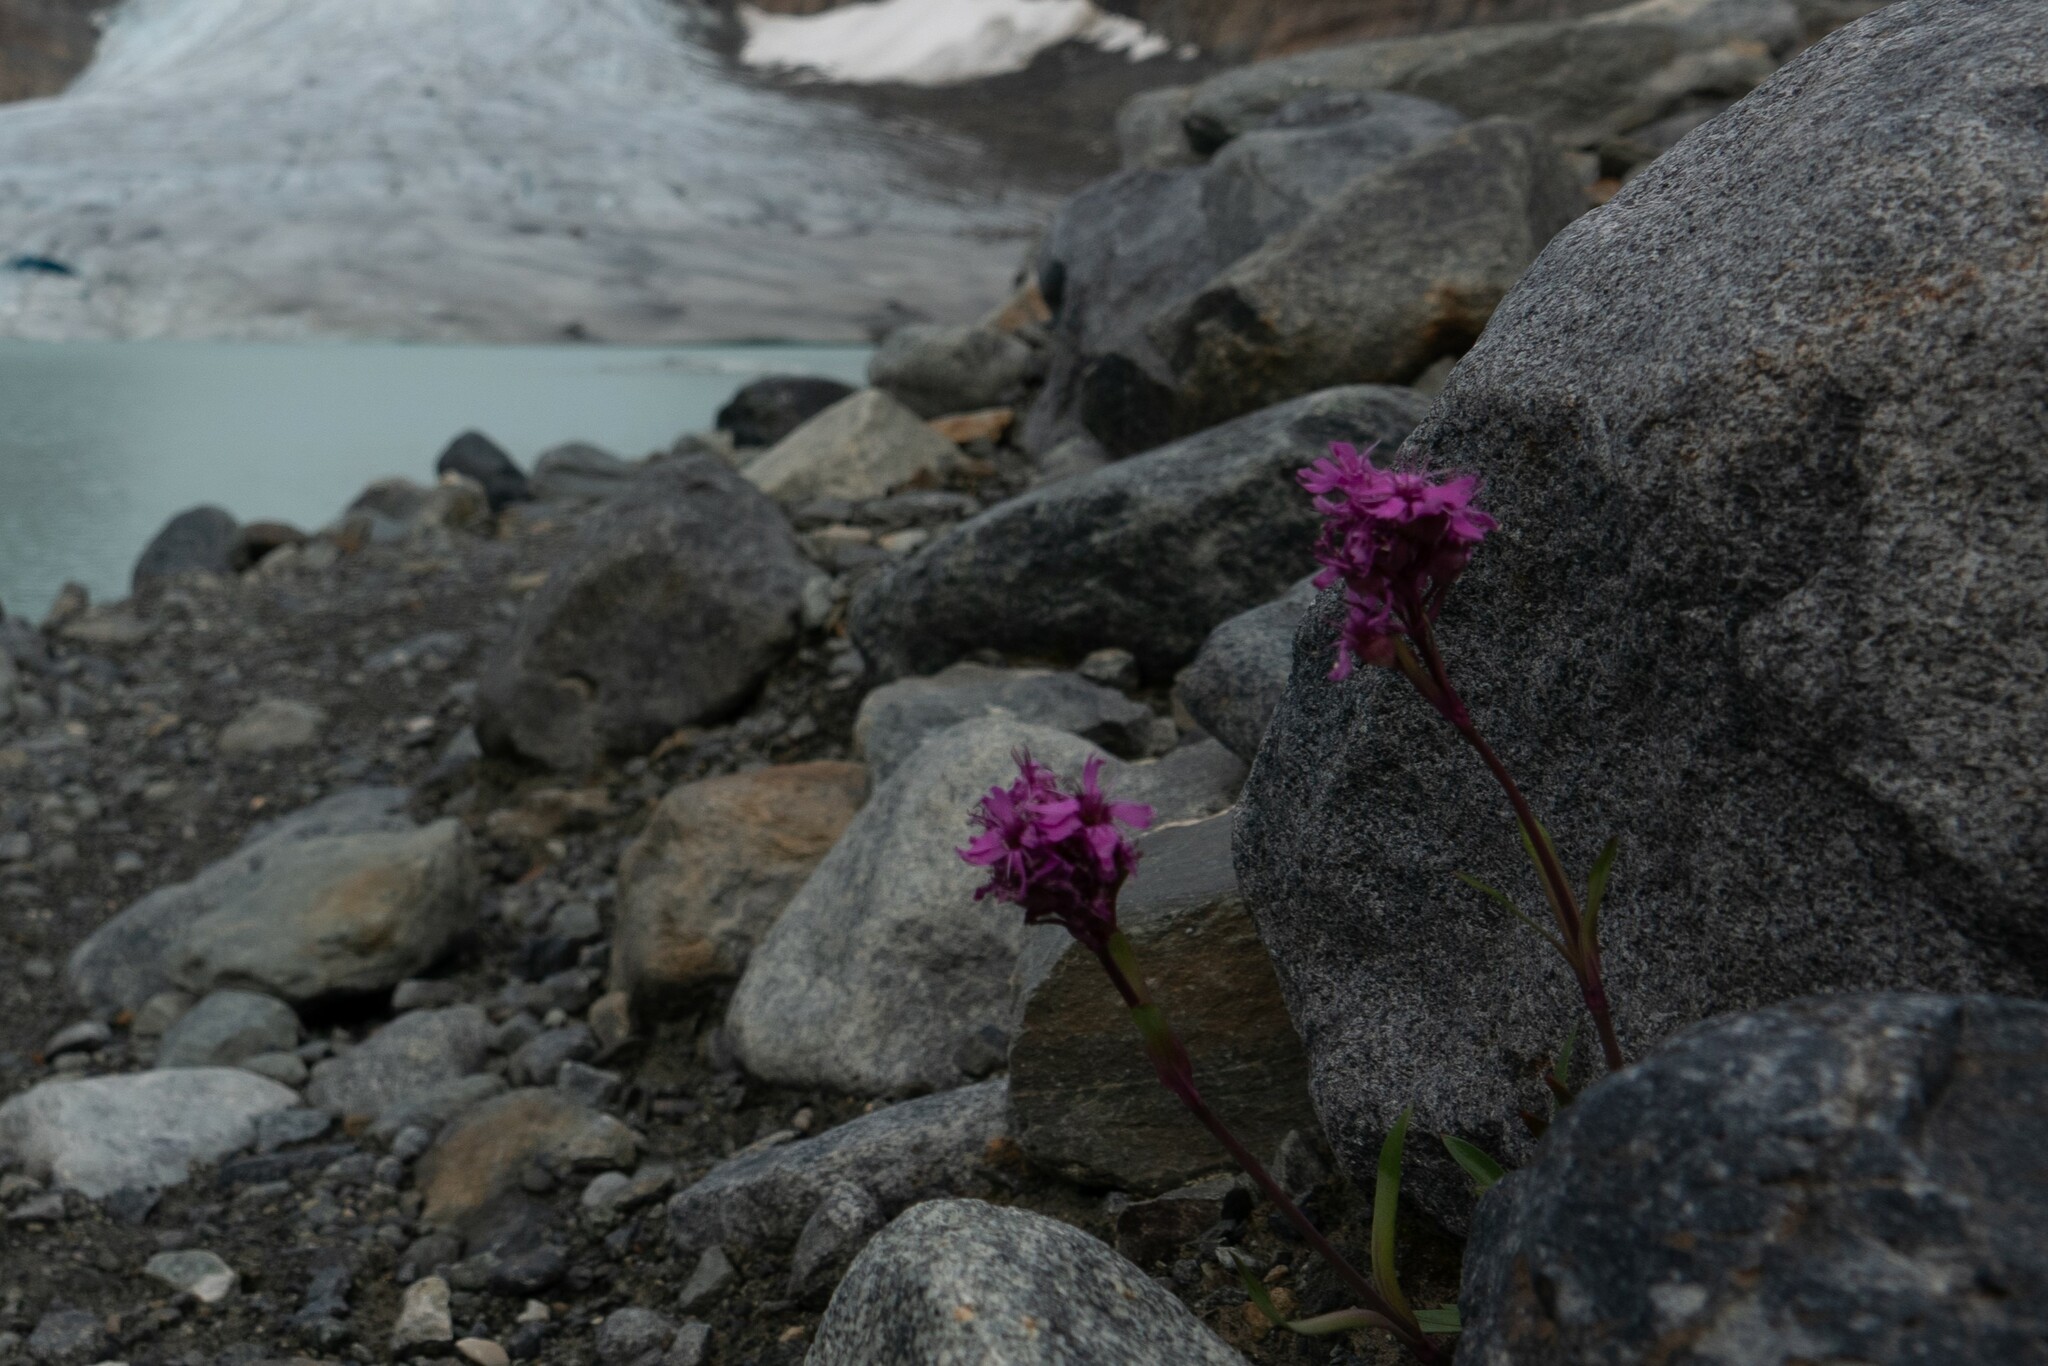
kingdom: Plantae
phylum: Tracheophyta
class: Magnoliopsida
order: Caryophyllales
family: Caryophyllaceae
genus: Viscaria
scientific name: Viscaria alpina
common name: Alpine campion
